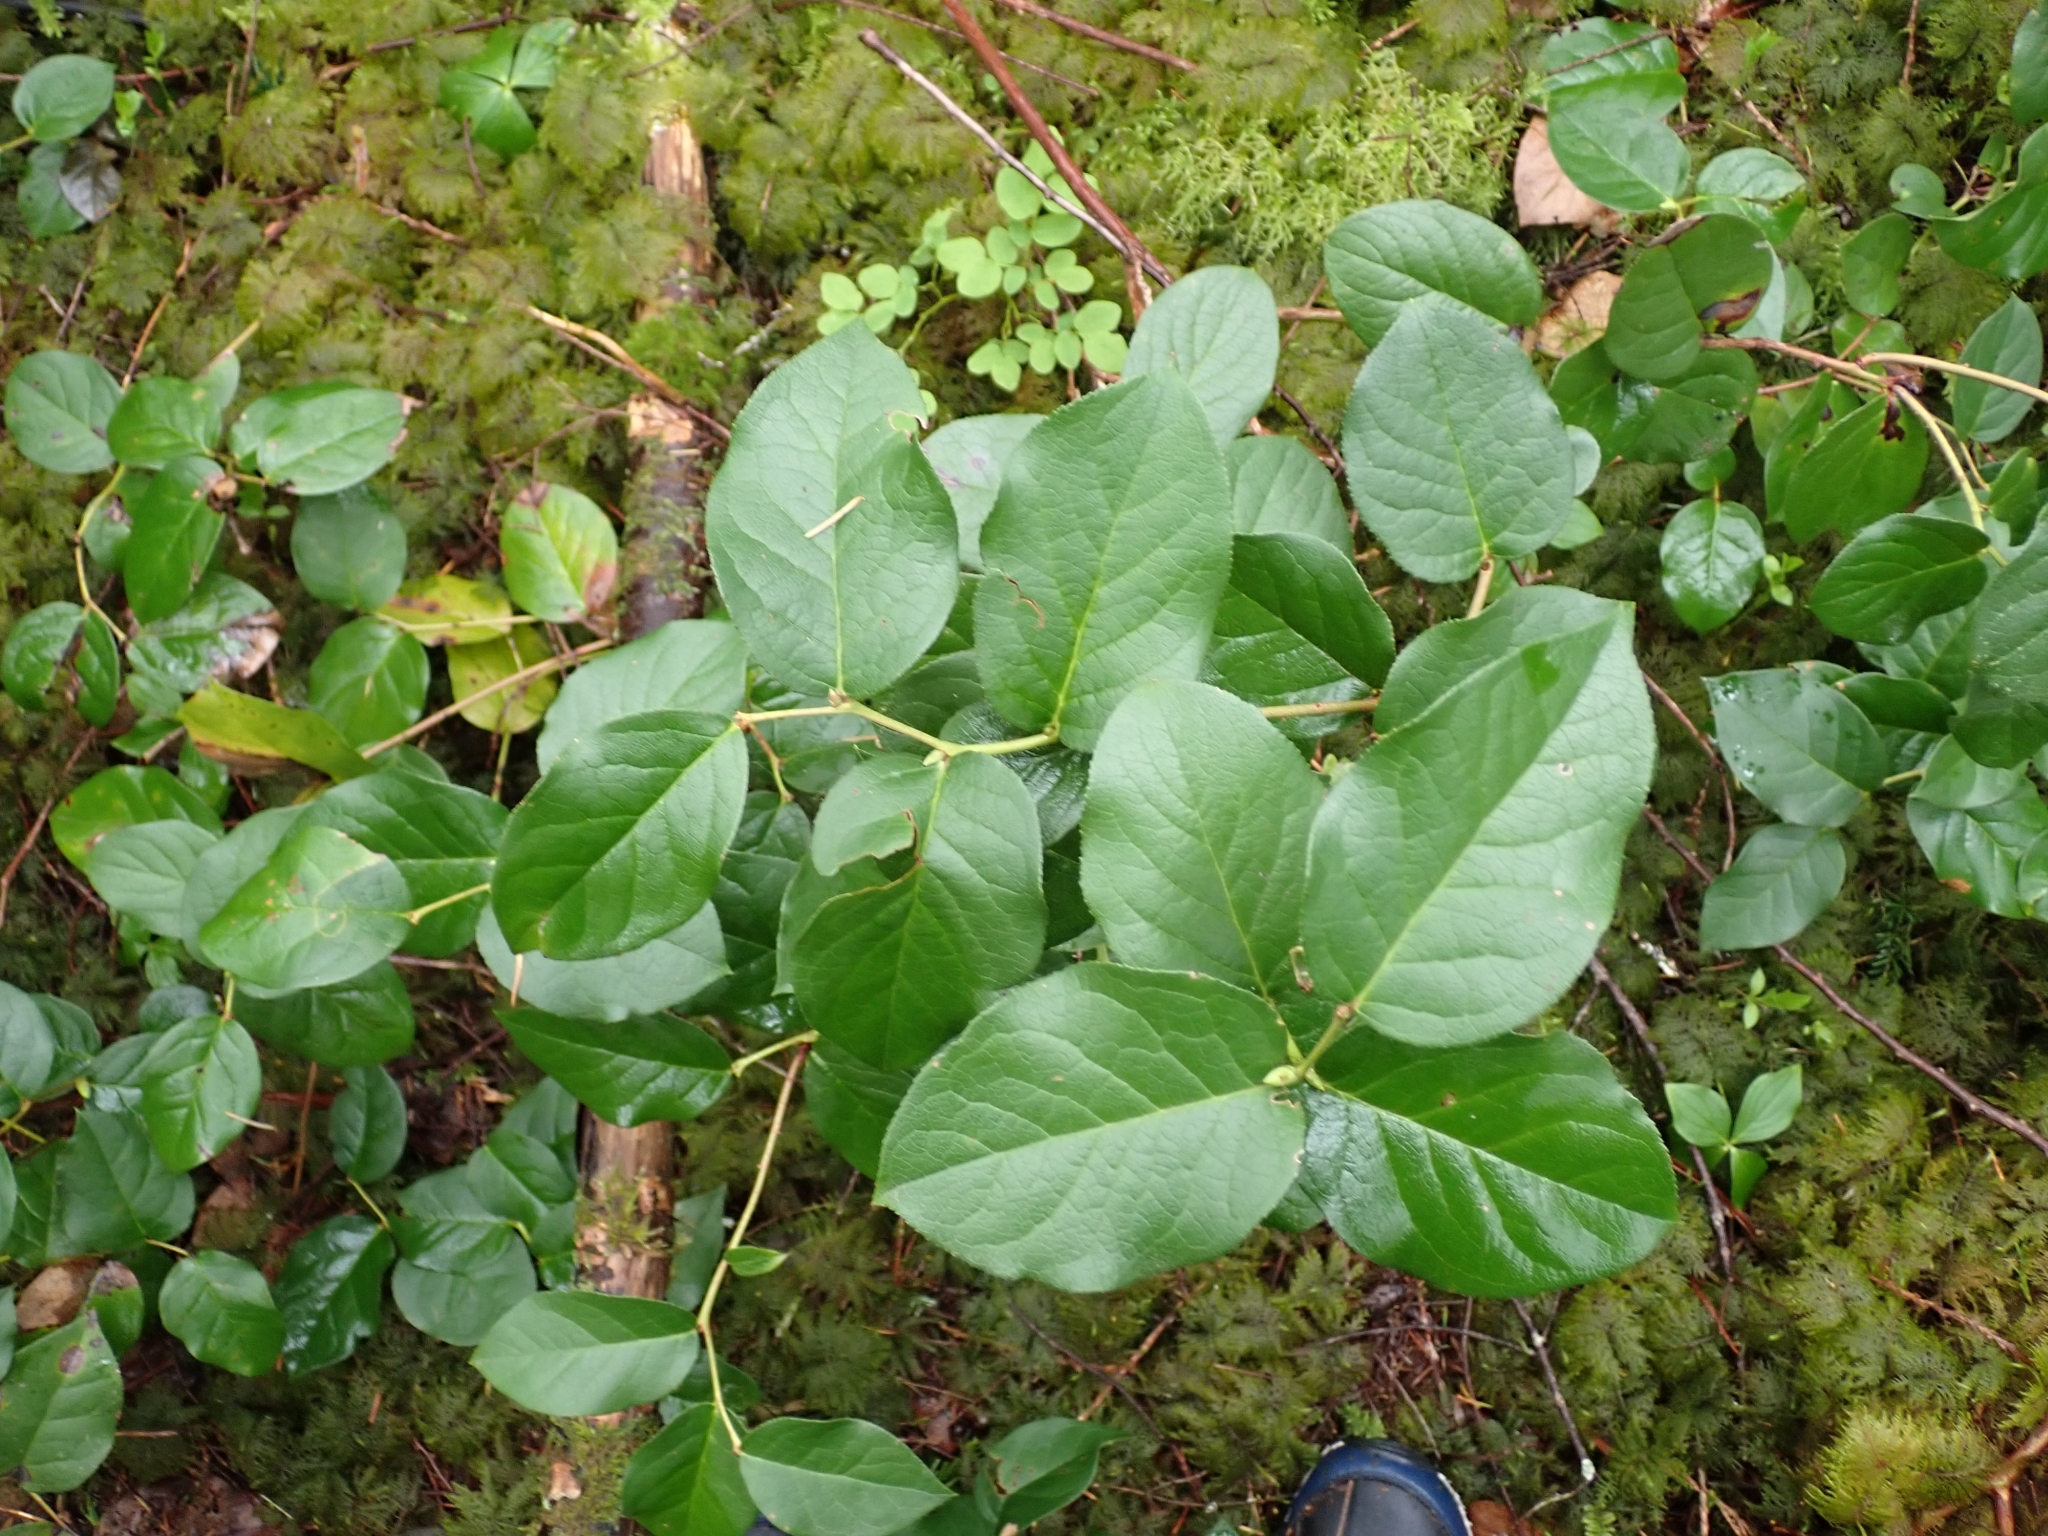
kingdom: Plantae
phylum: Tracheophyta
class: Magnoliopsida
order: Ericales
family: Ericaceae
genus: Gaultheria
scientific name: Gaultheria shallon
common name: Shallon
